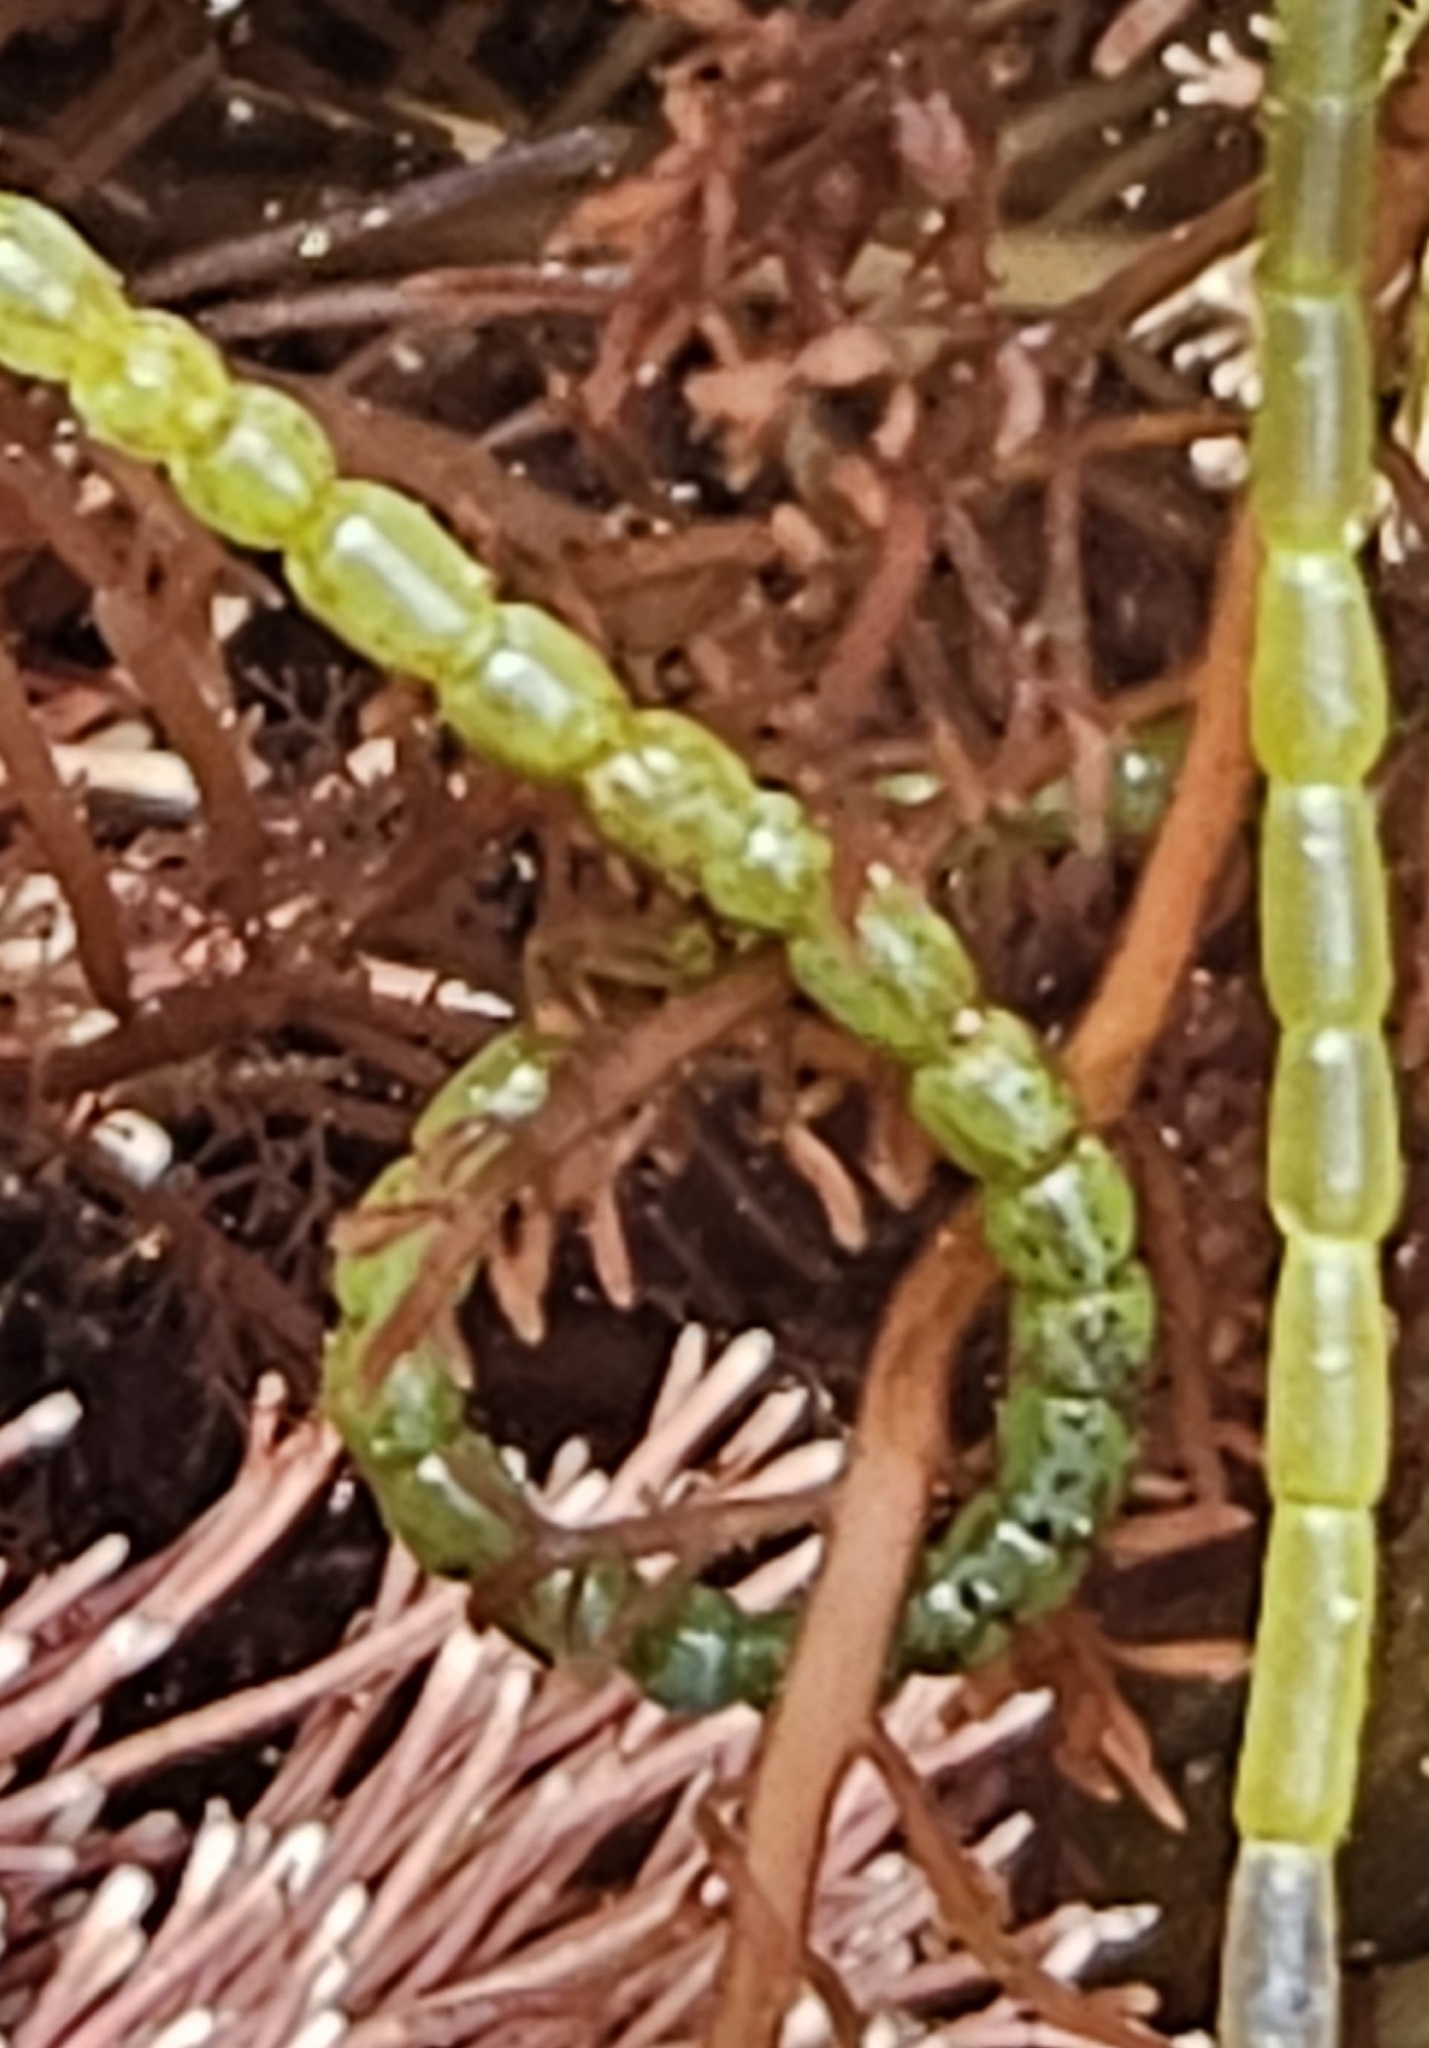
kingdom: Plantae
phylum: Chlorophyta
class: Ulvophyceae
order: Cladophorales
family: Cladophoraceae
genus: Chaetomorpha
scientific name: Chaetomorpha spiralis
